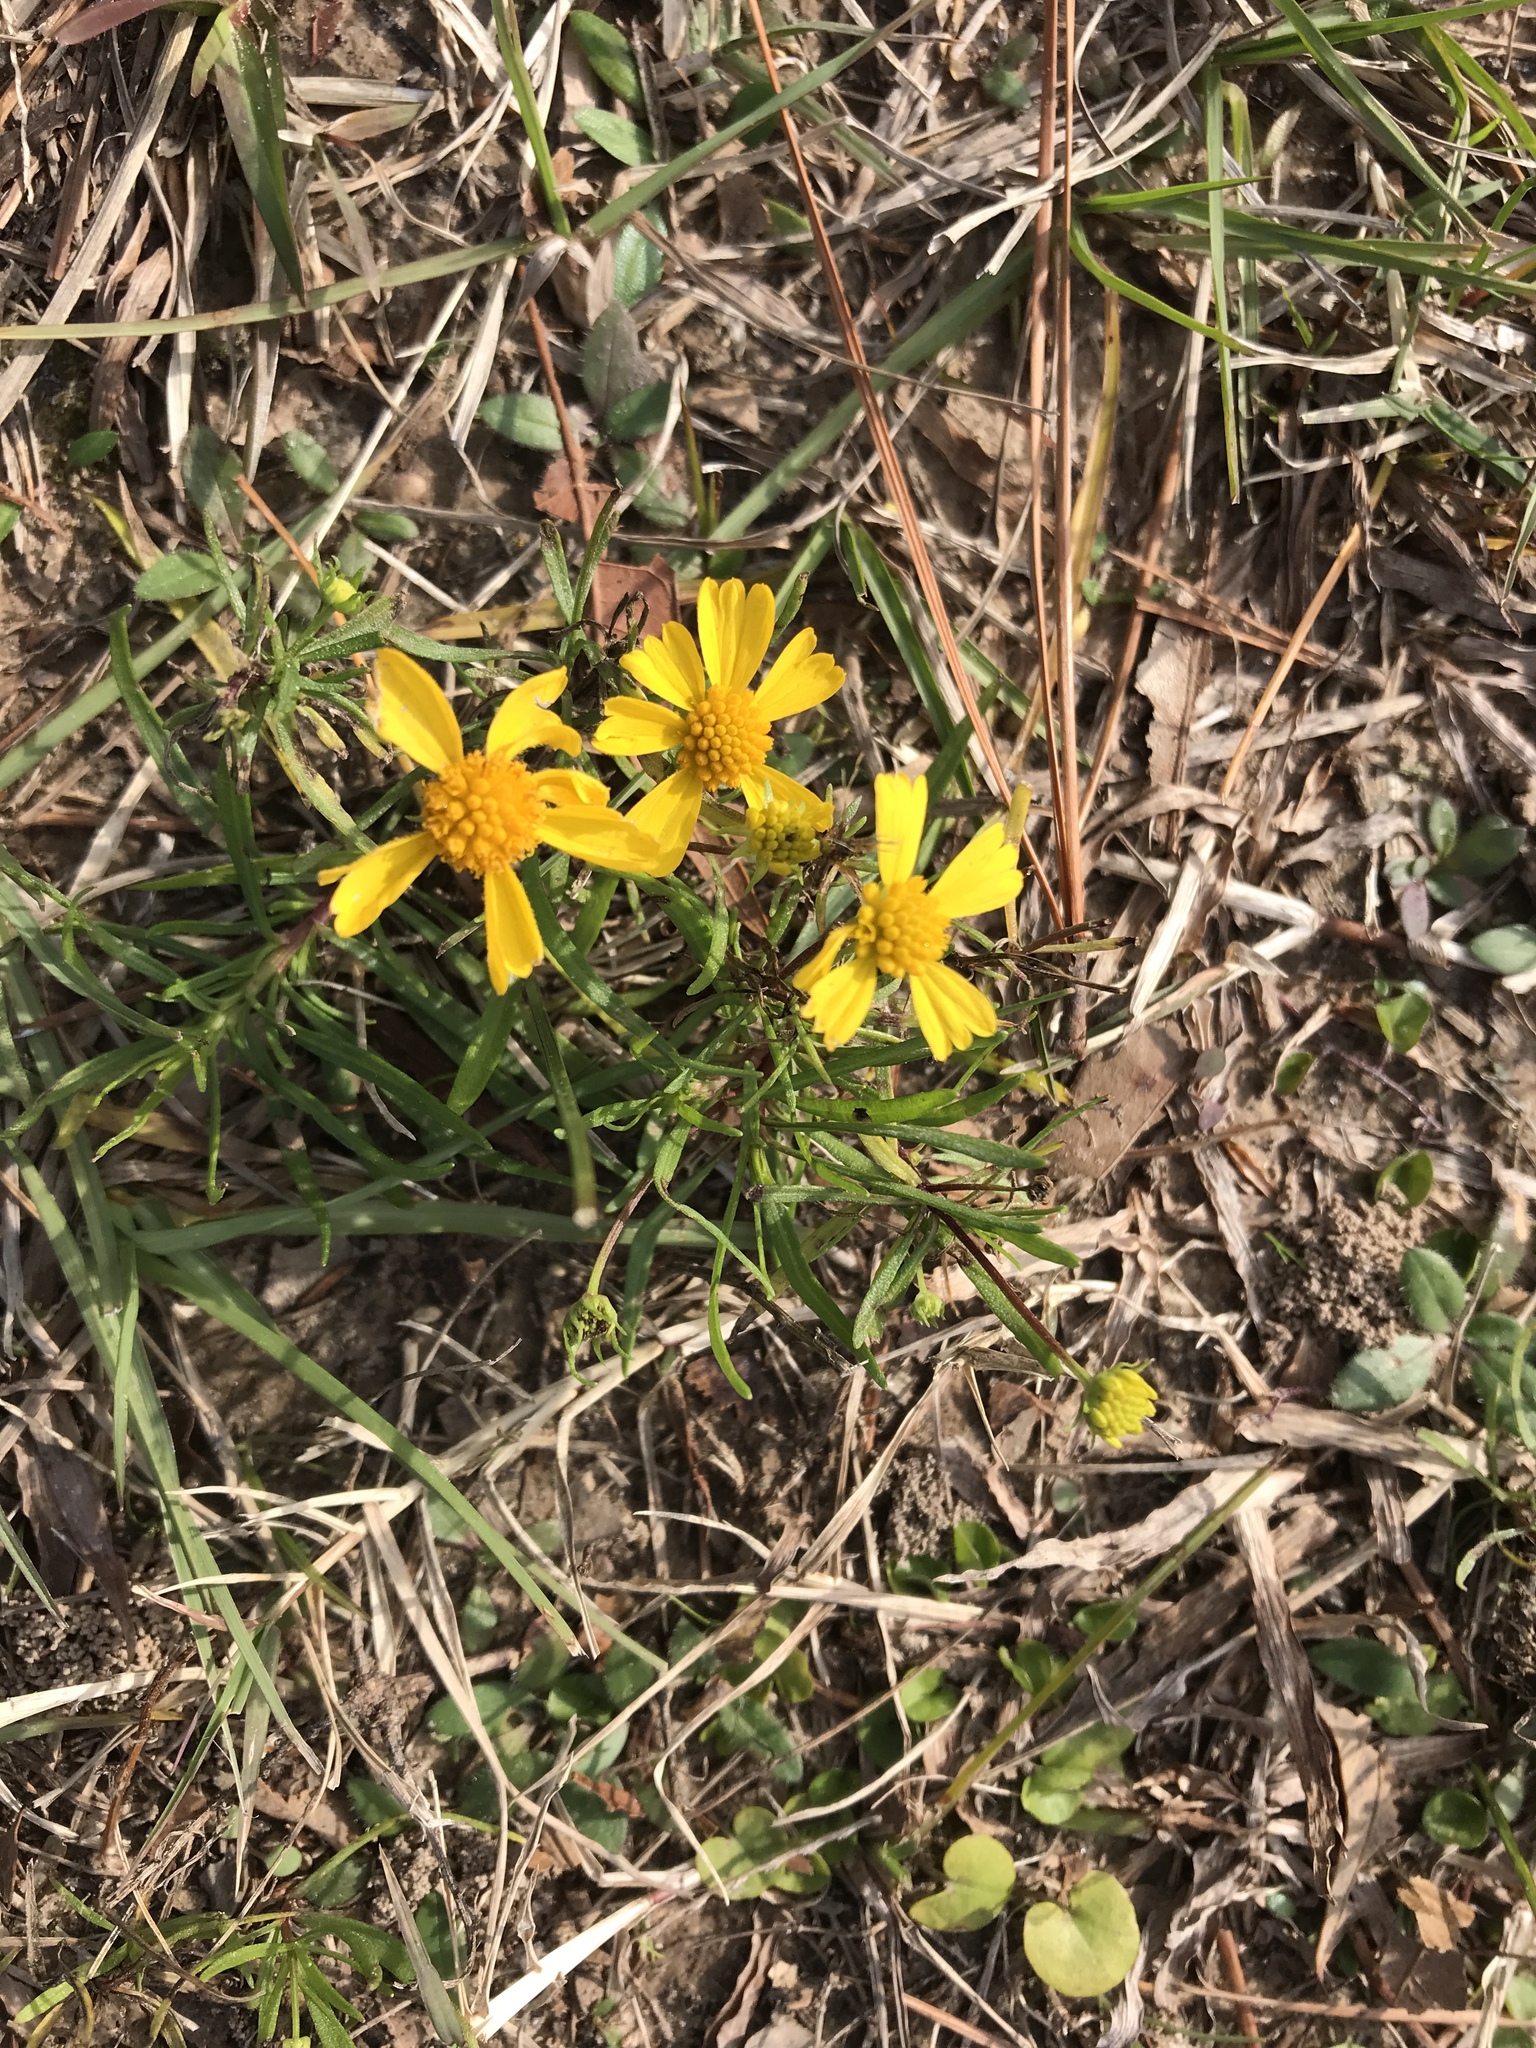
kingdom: Plantae
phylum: Tracheophyta
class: Magnoliopsida
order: Asterales
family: Asteraceae
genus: Helenium
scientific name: Helenium amarum
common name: Bitter sneezeweed
